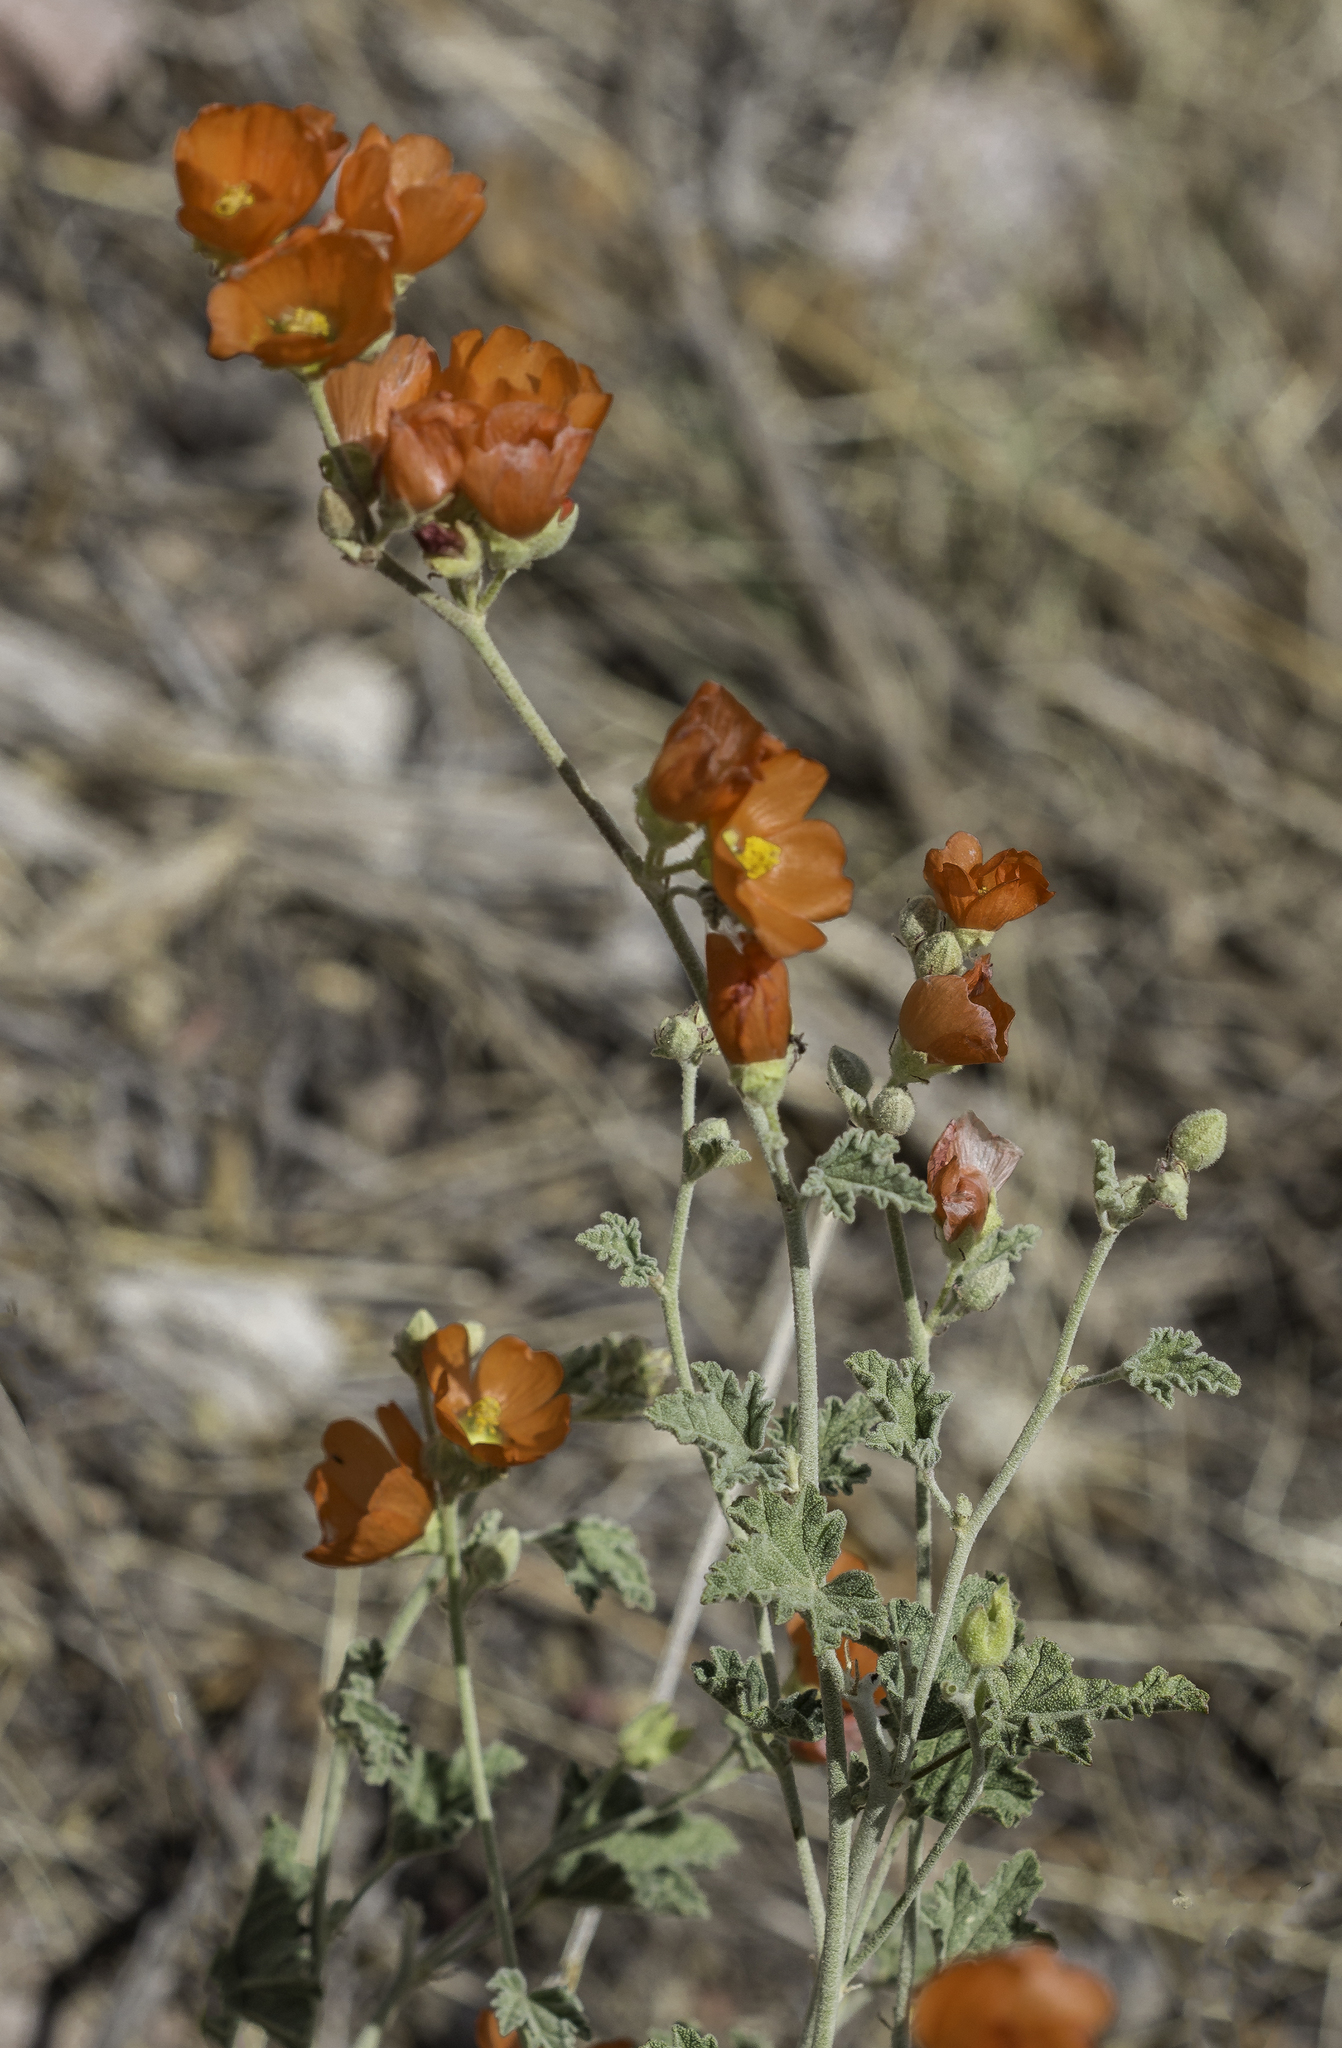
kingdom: Plantae
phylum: Tracheophyta
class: Magnoliopsida
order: Malvales
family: Malvaceae
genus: Sphaeralcea
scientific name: Sphaeralcea parvifolia
